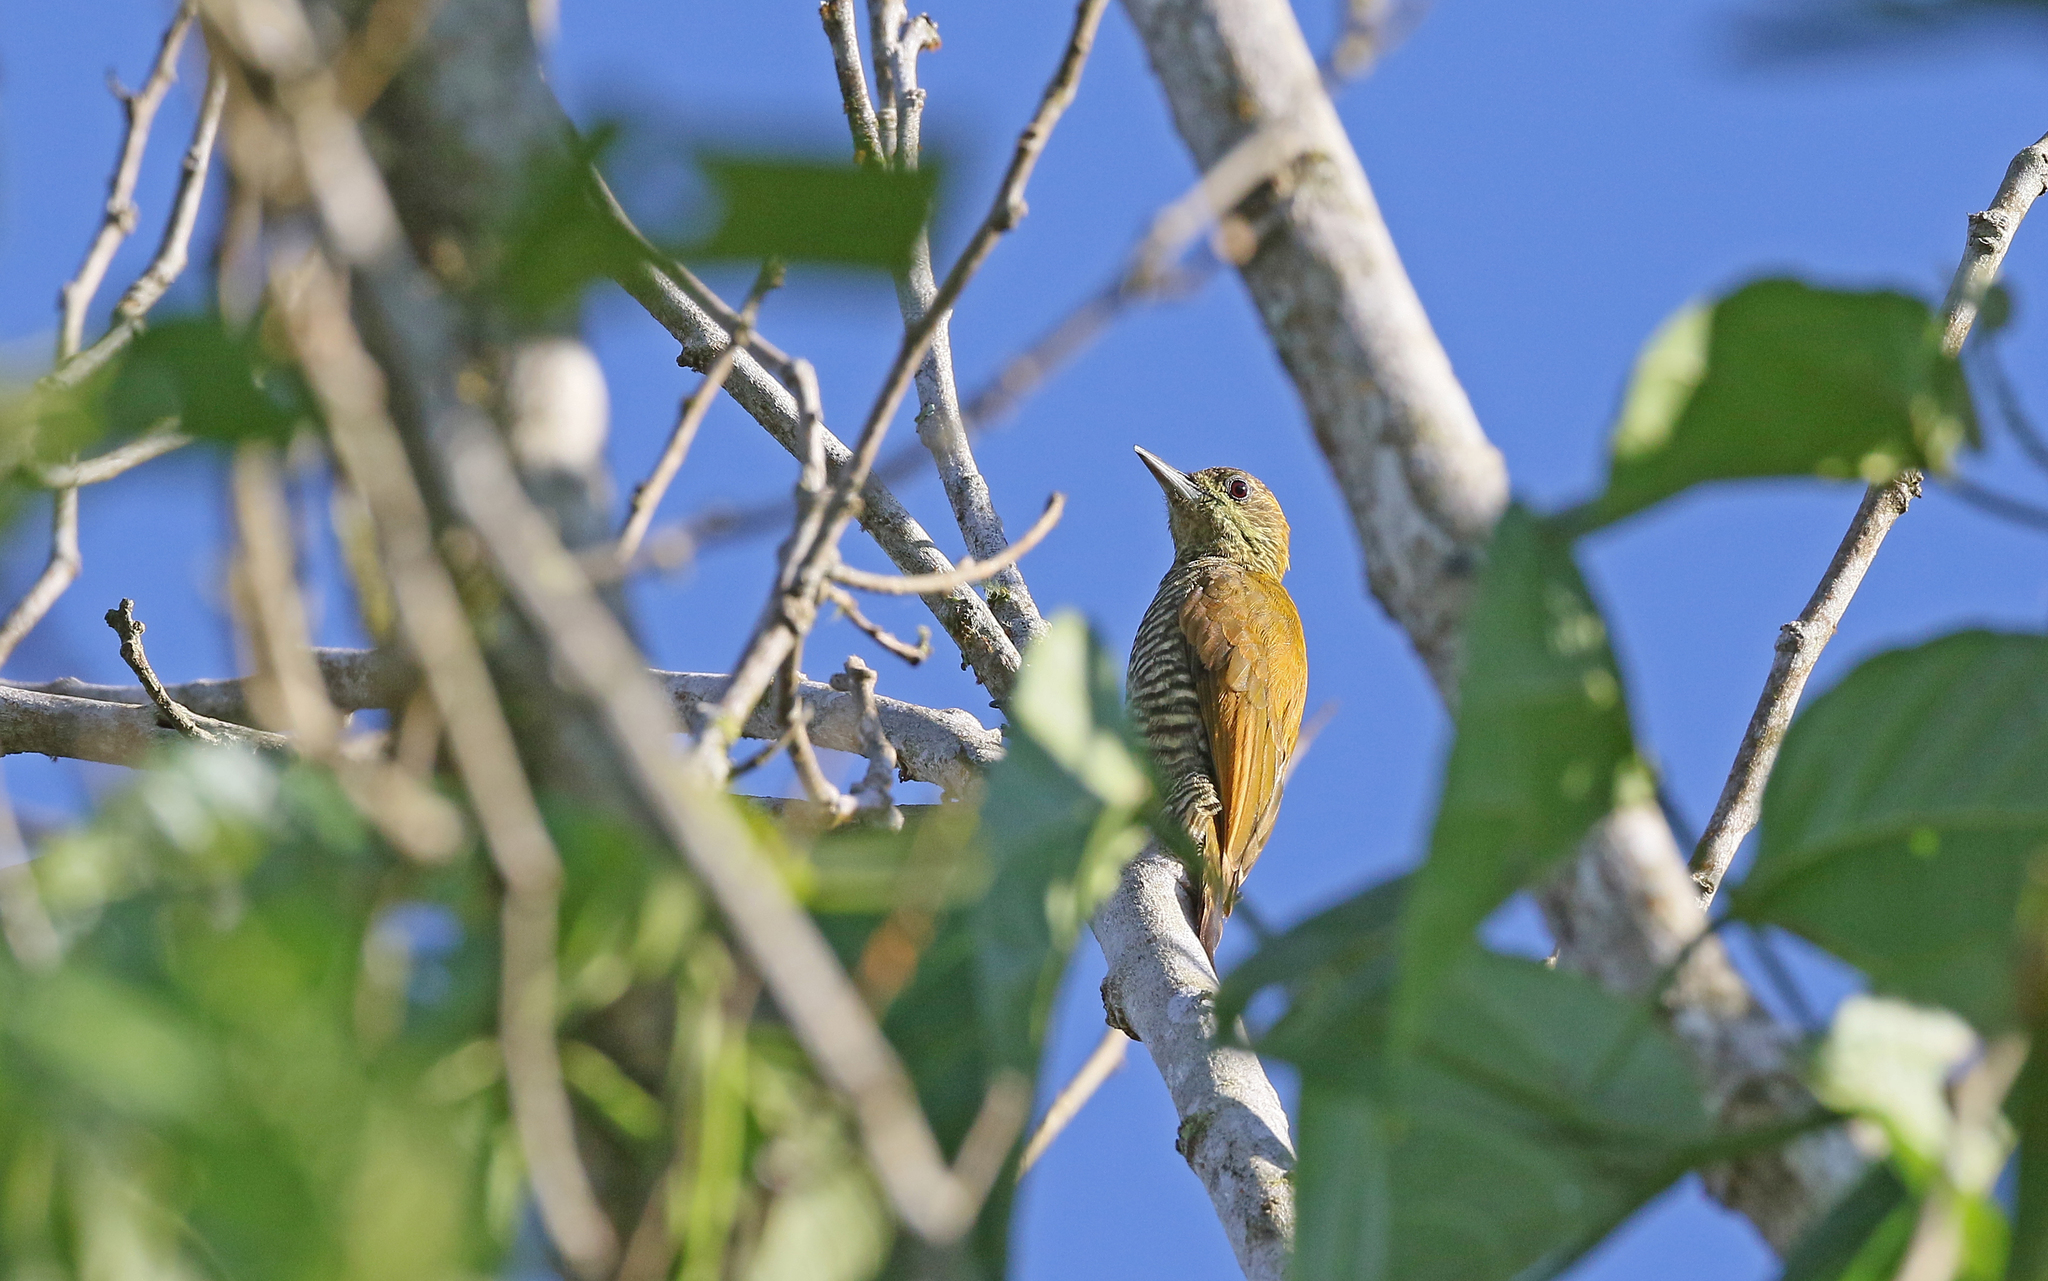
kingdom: Animalia
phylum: Chordata
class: Aves
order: Piciformes
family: Picidae
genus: Veniliornis
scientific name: Veniliornis affinis
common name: Red-stained woodpecker
